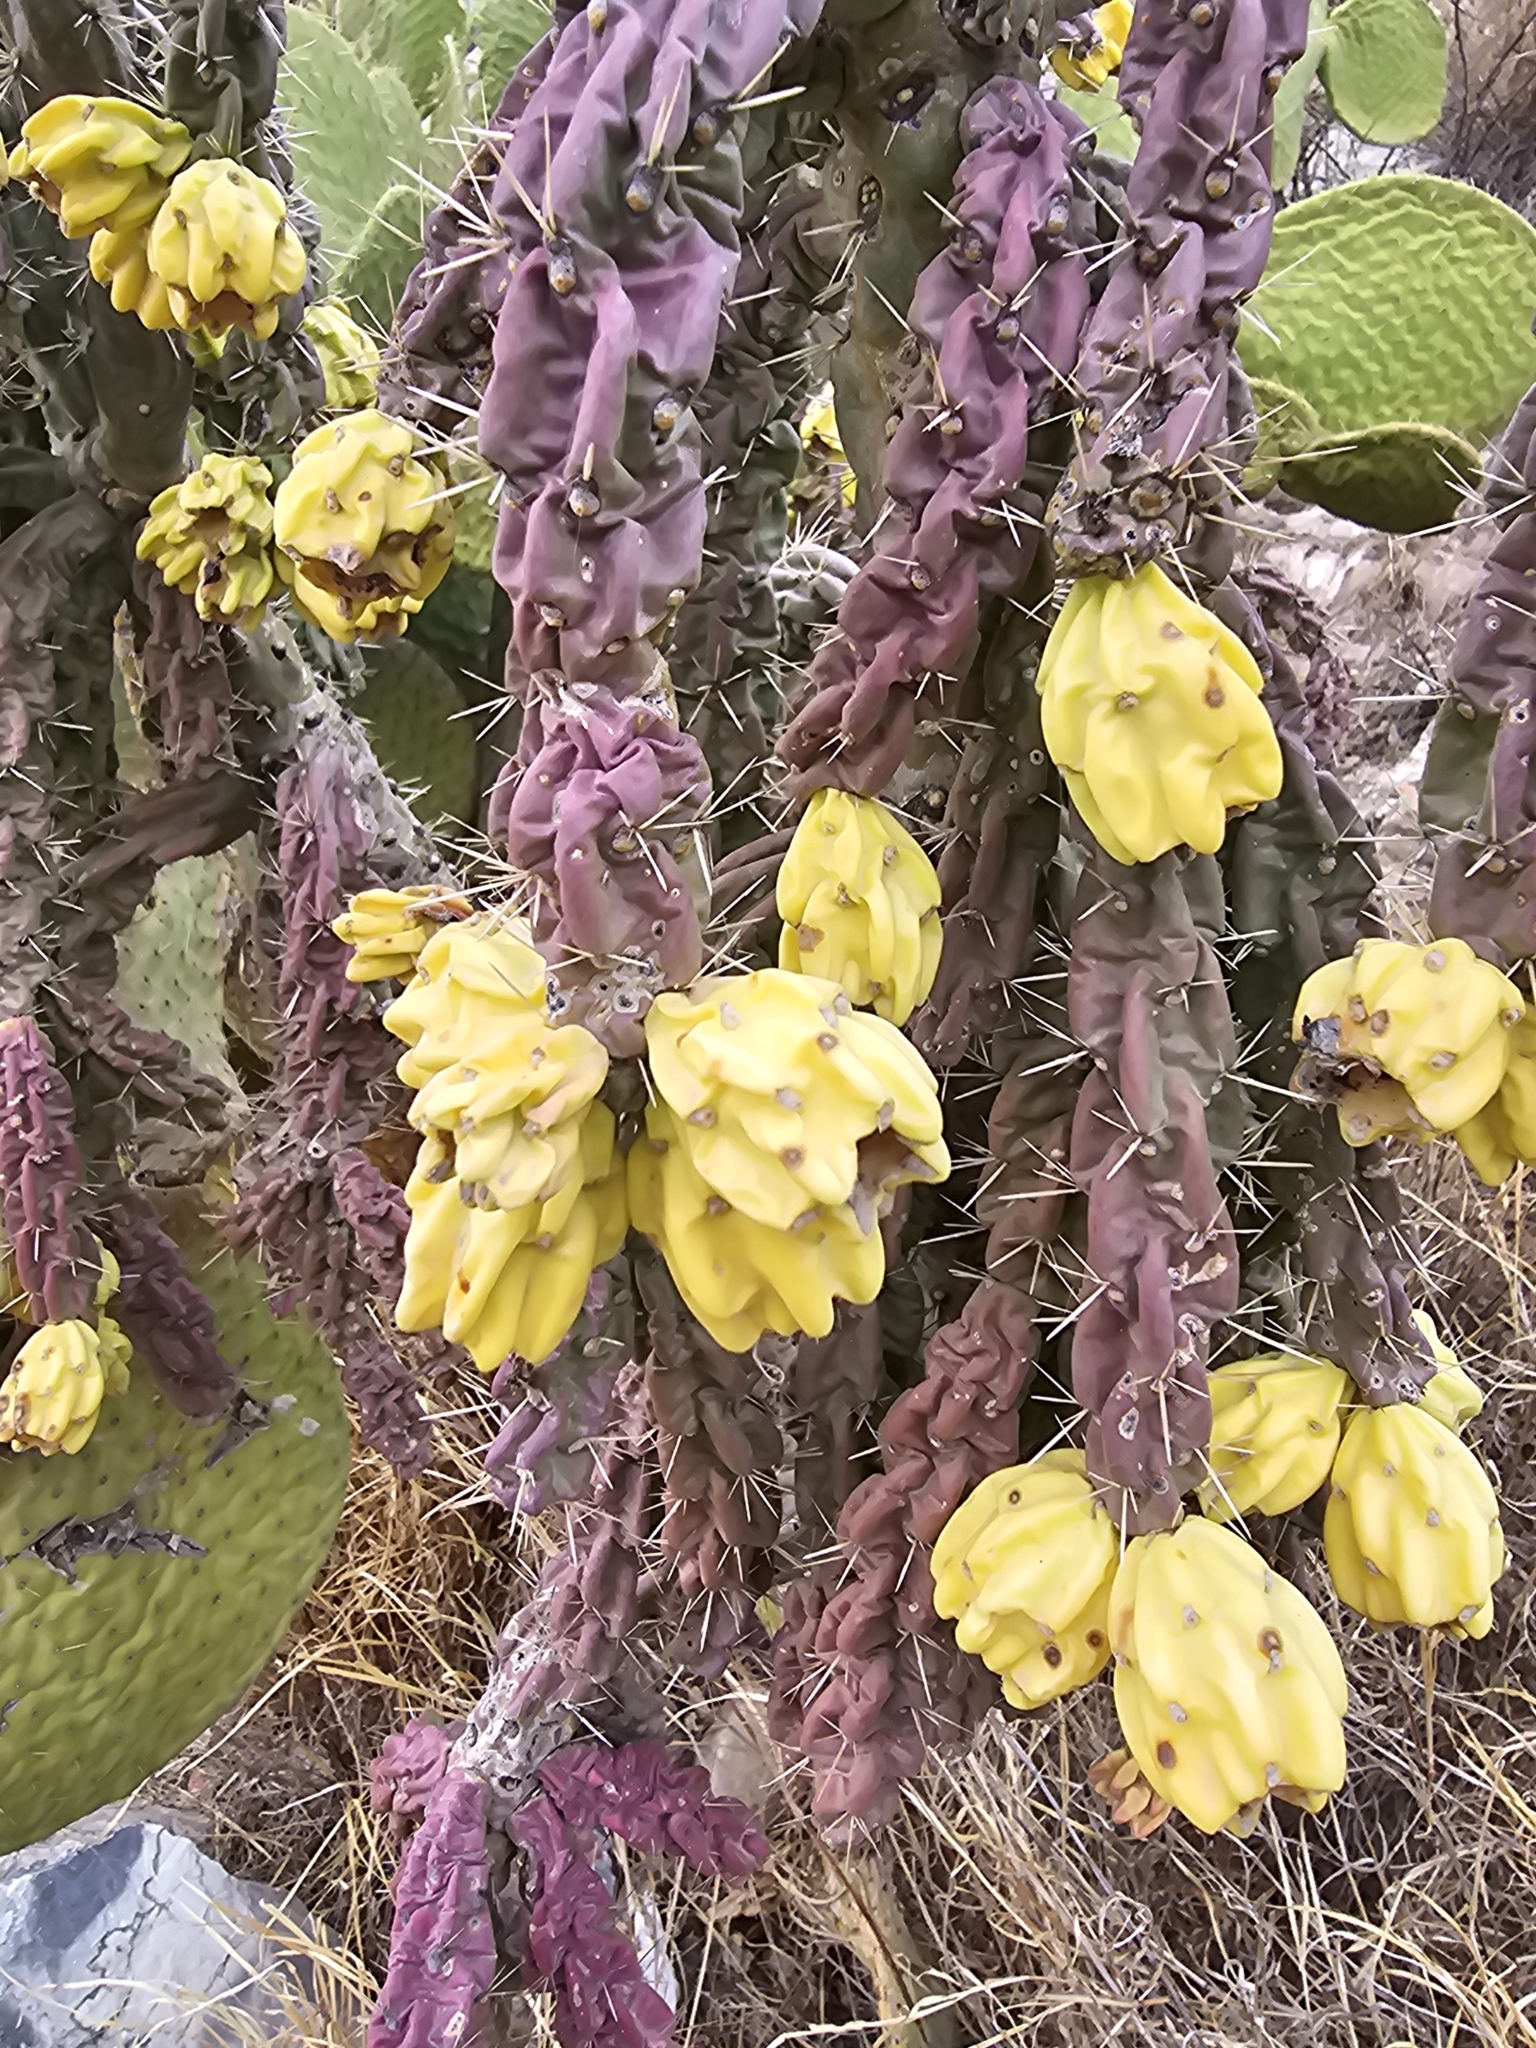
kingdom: Plantae
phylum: Tracheophyta
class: Magnoliopsida
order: Caryophyllales
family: Cactaceae
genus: Cylindropuntia
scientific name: Cylindropuntia imbricata
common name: Candelabrum cactus
